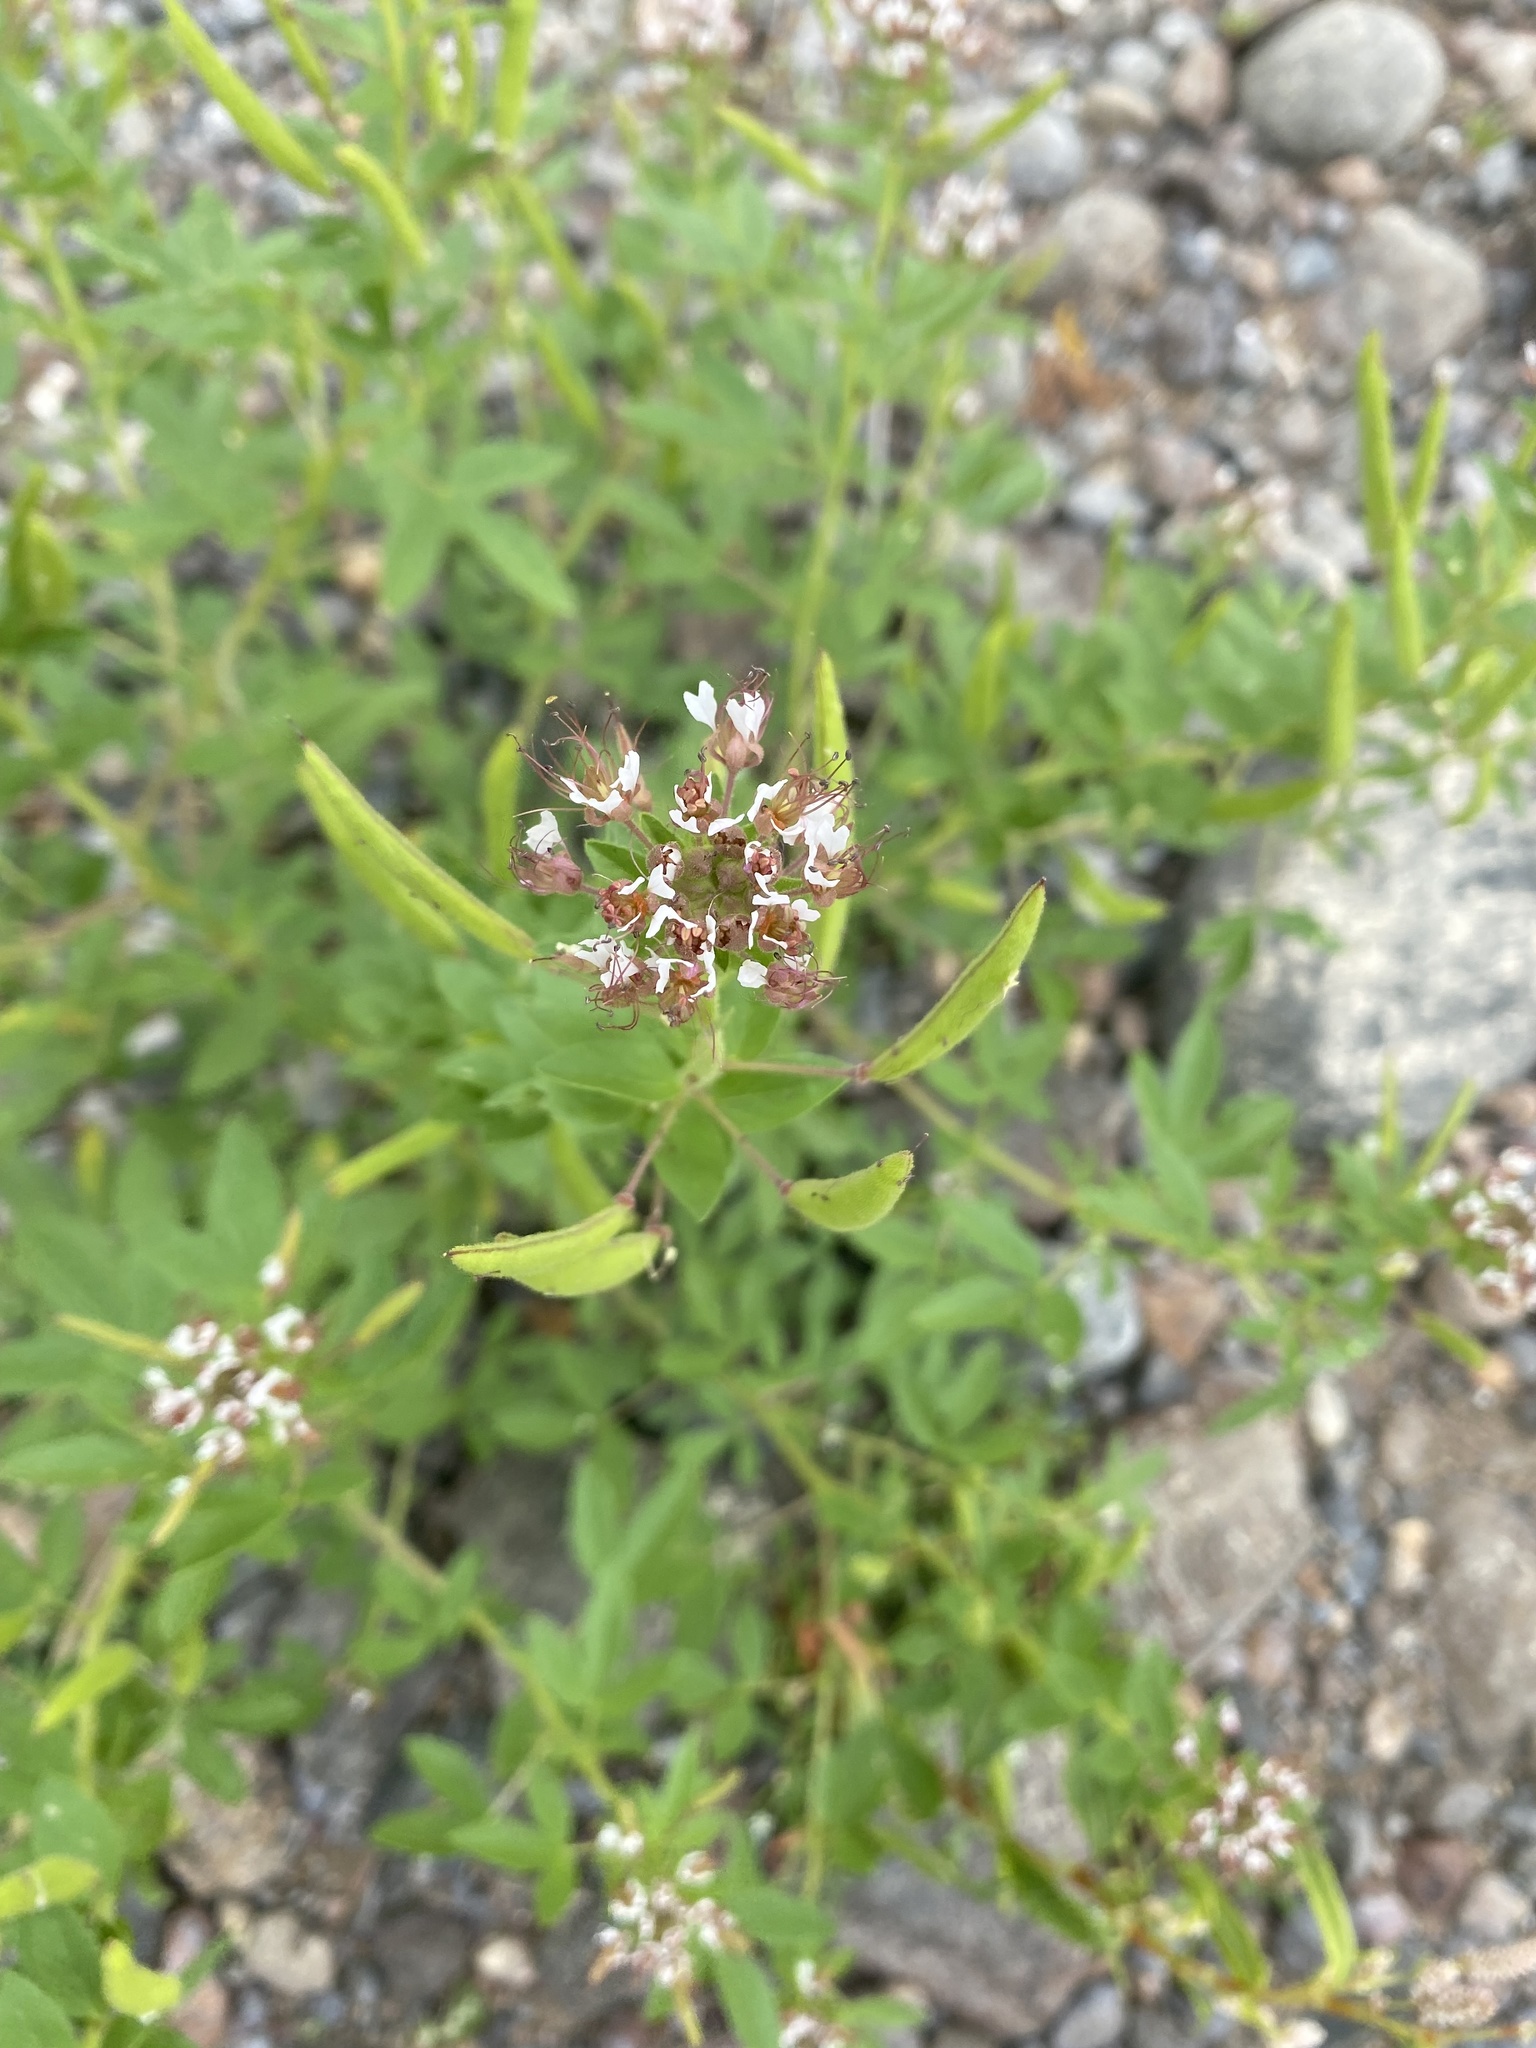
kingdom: Plantae
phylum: Tracheophyta
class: Magnoliopsida
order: Brassicales
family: Cleomaceae
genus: Polanisia
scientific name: Polanisia dodecandra
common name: Clammyweed
